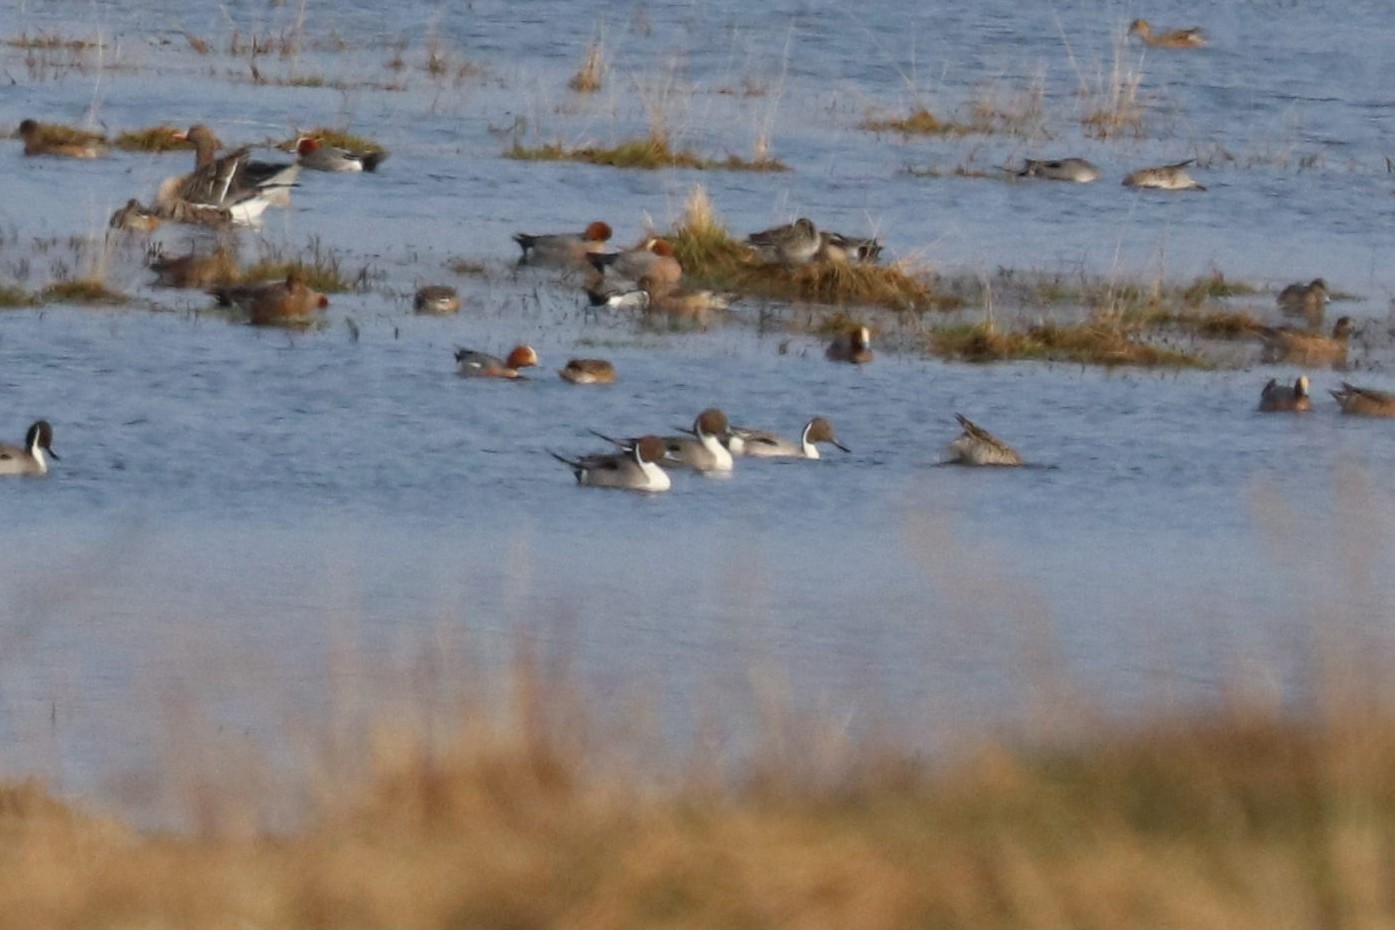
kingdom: Animalia
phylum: Chordata
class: Aves
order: Anseriformes
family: Anatidae
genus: Anas
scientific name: Anas acuta
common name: Northern pintail
